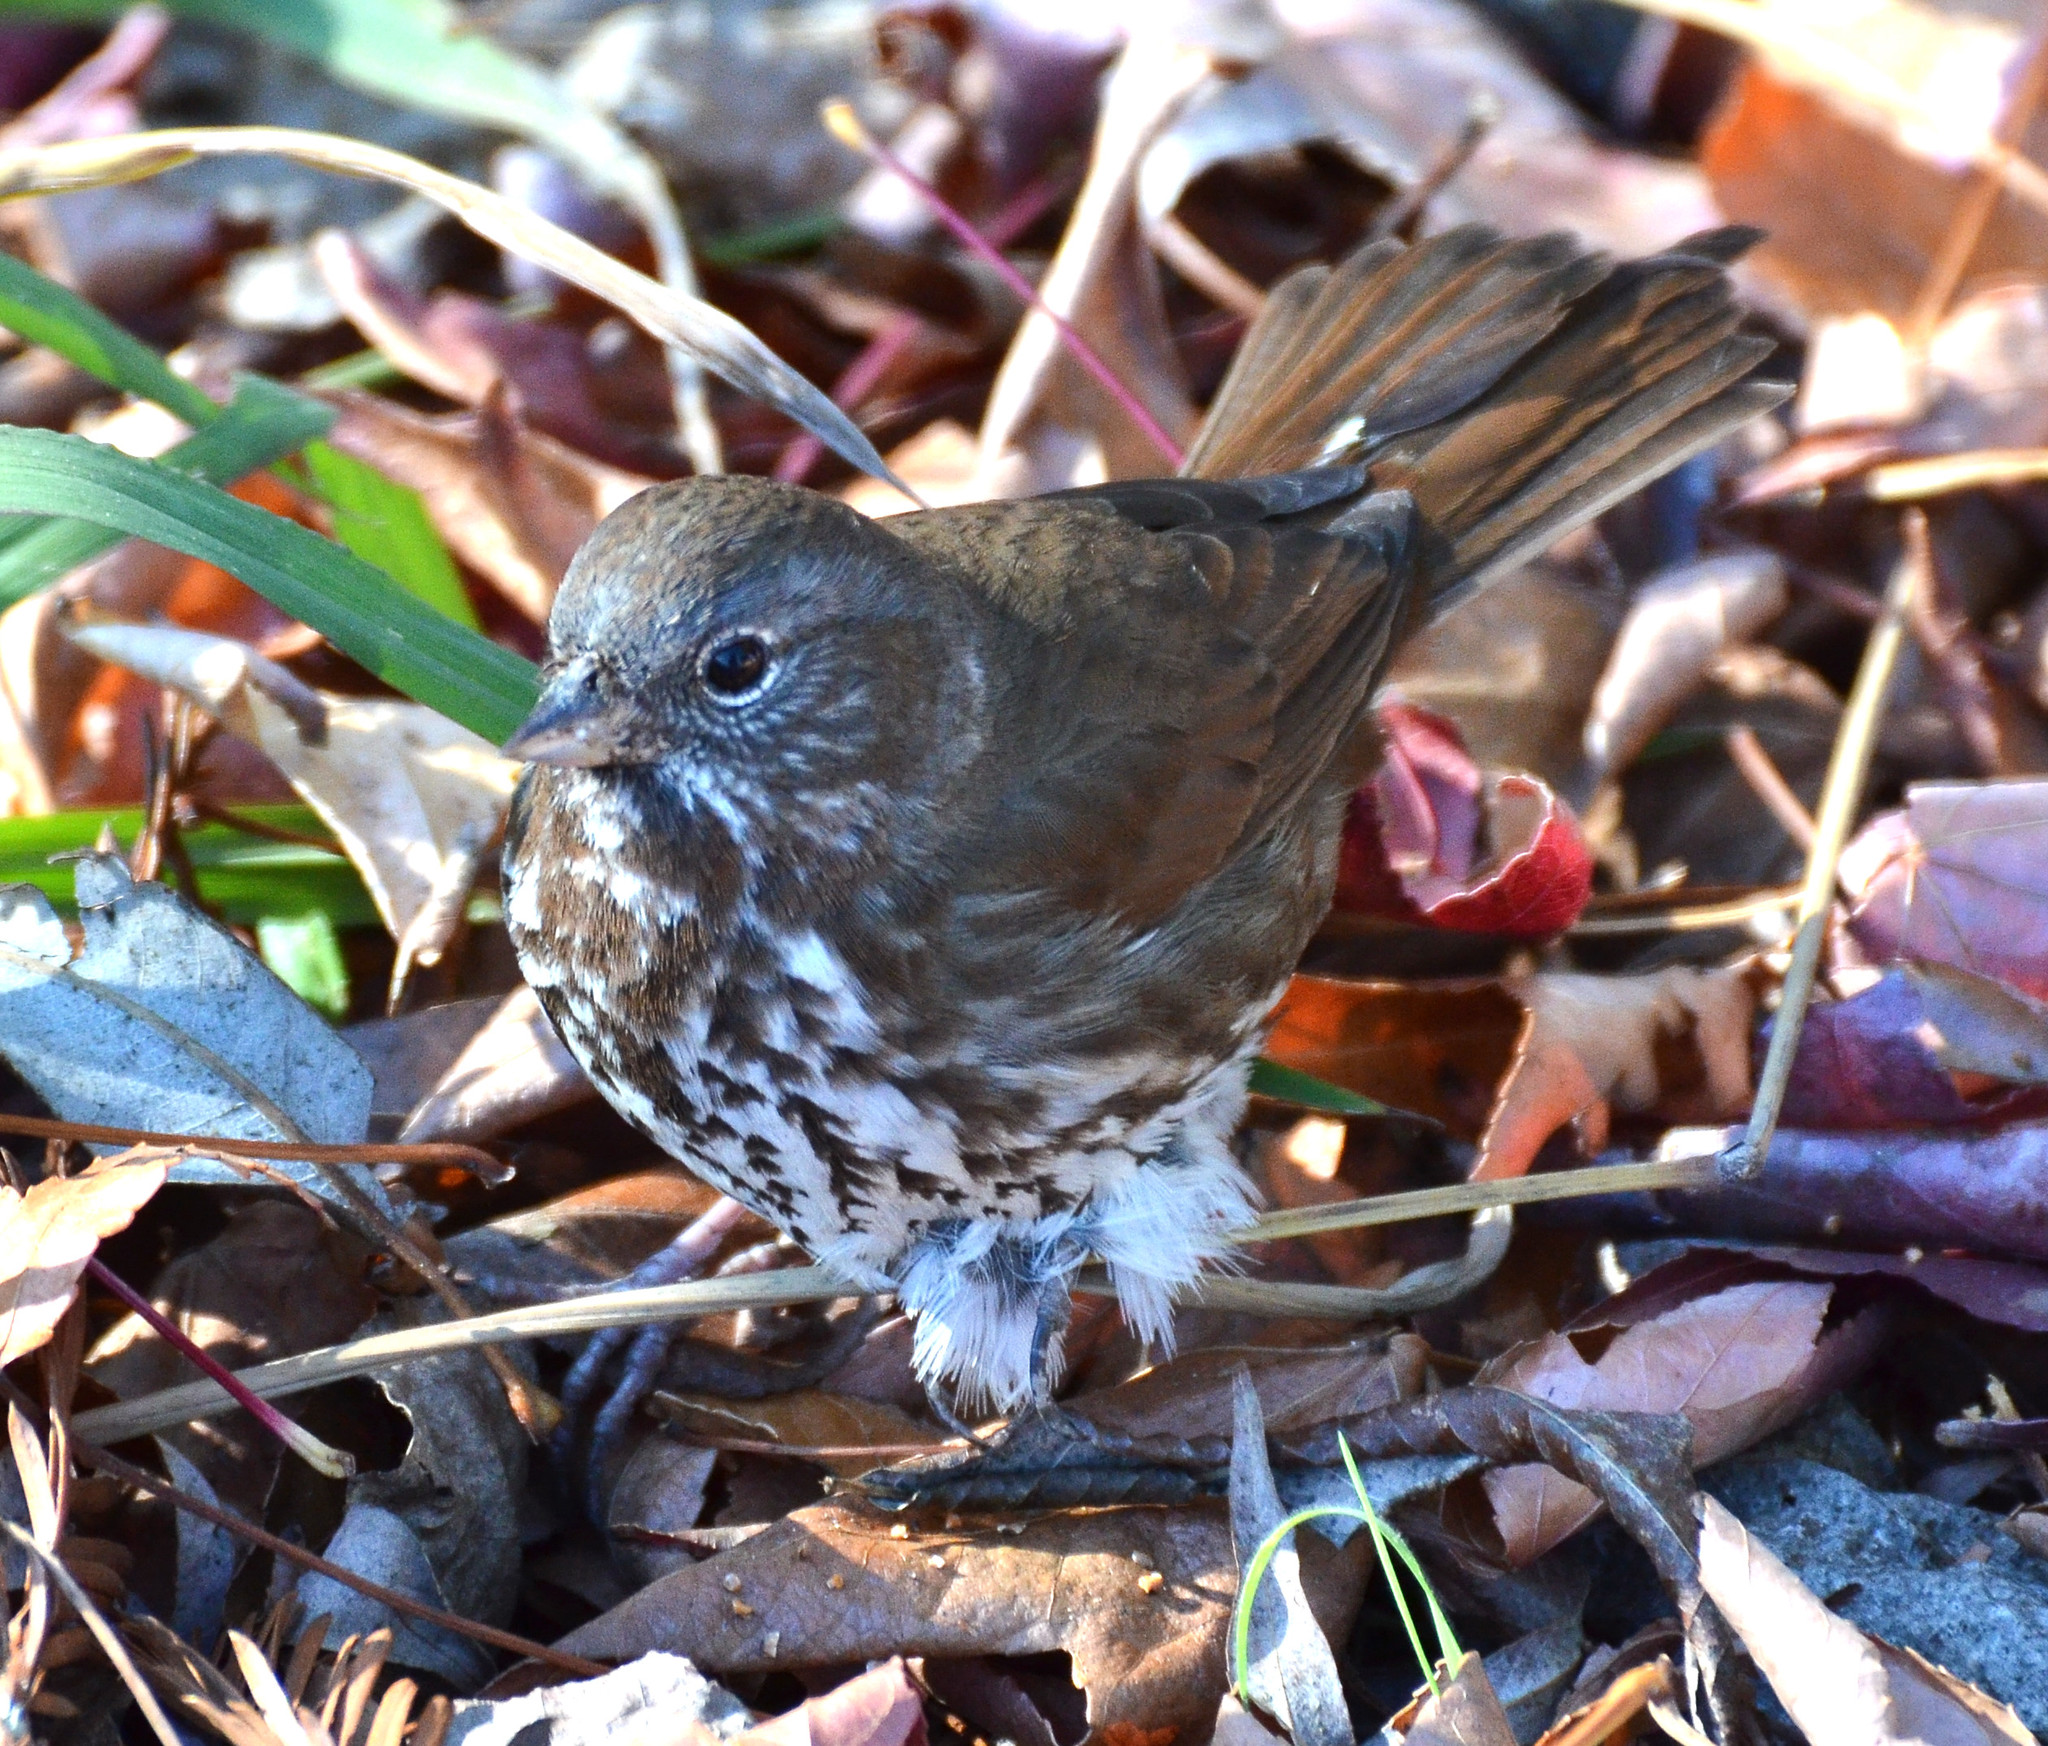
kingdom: Animalia
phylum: Chordata
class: Aves
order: Passeriformes
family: Passerellidae
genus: Passerella
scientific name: Passerella iliaca
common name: Fox sparrow
